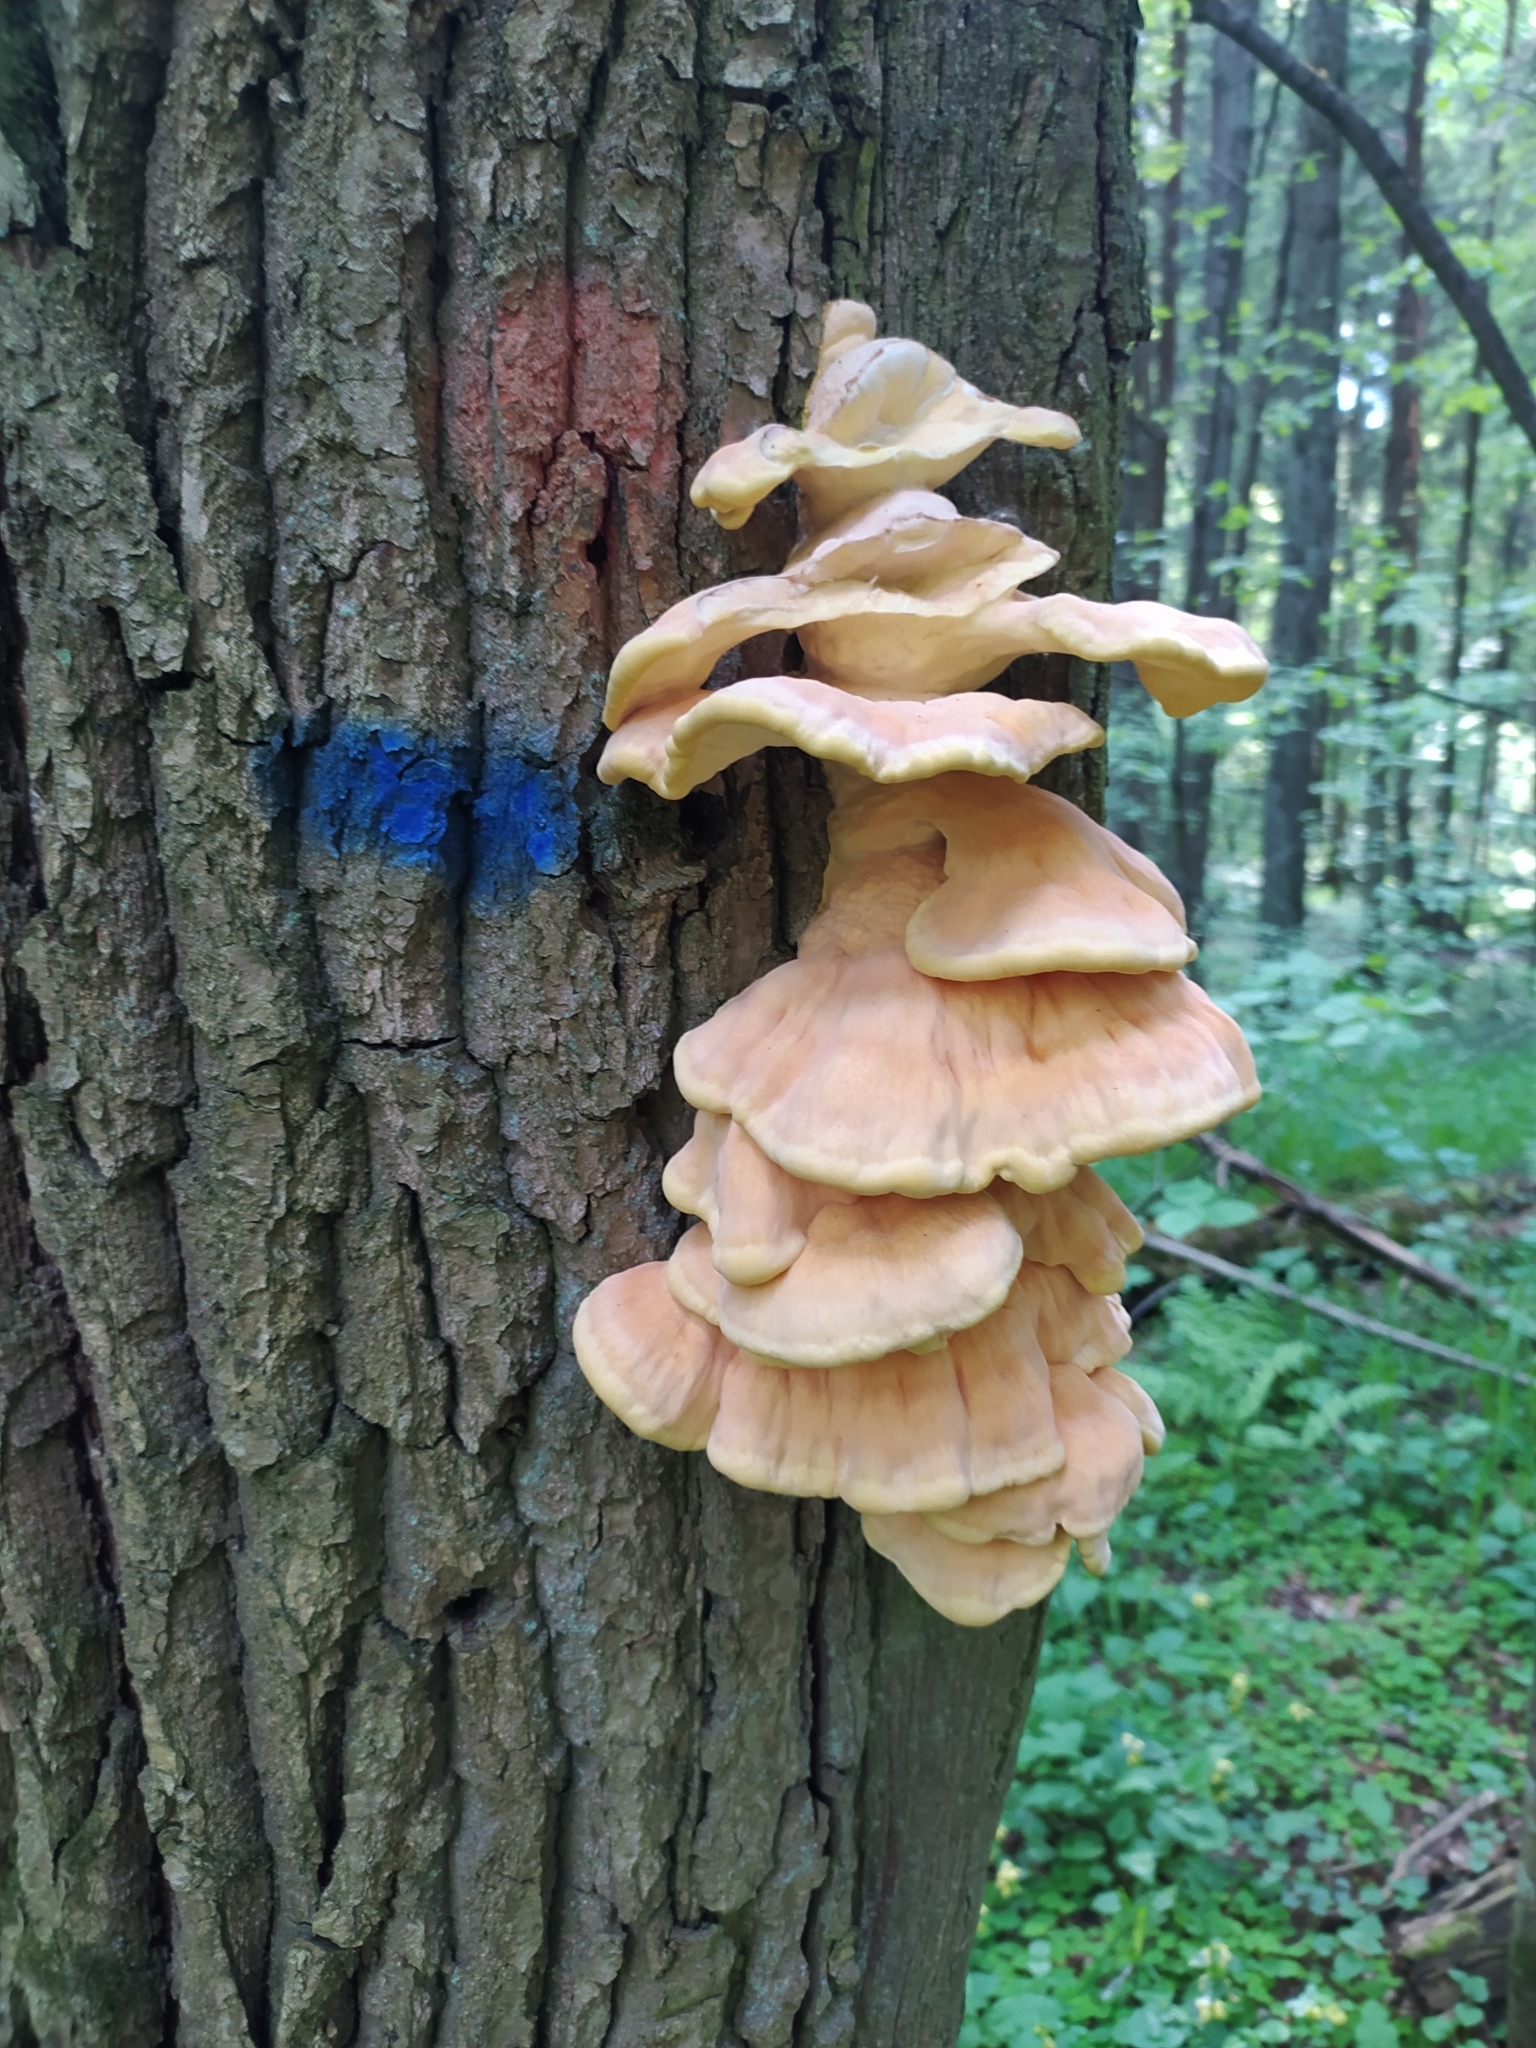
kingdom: Fungi
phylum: Basidiomycota
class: Agaricomycetes
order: Polyporales
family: Laetiporaceae
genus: Laetiporus
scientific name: Laetiporus sulphureus
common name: Chicken of the woods
